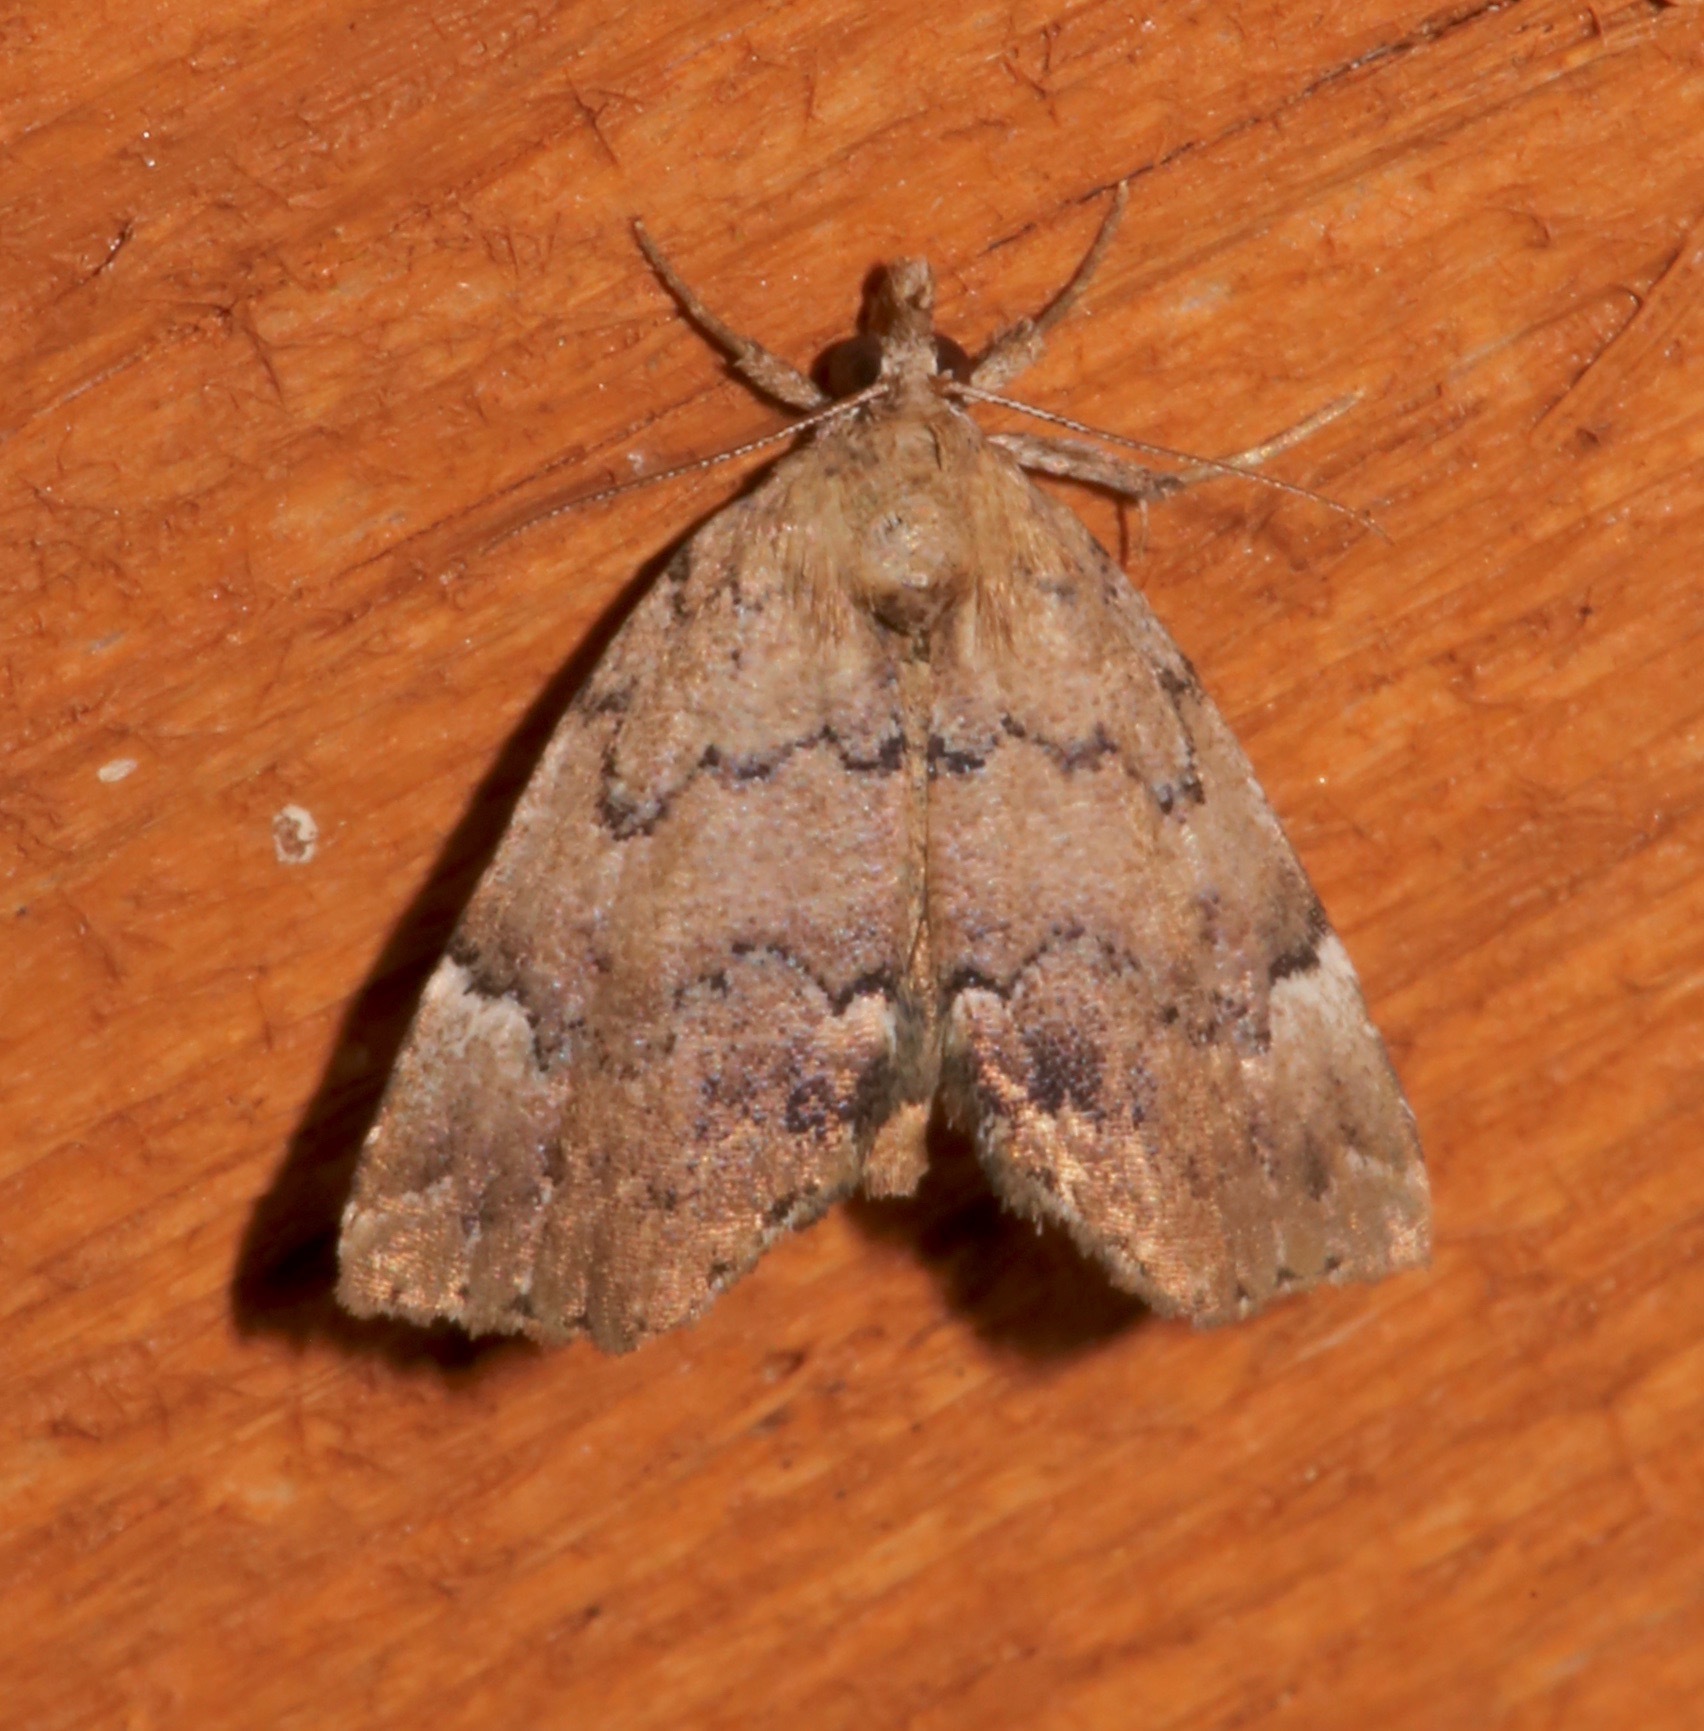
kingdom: Animalia
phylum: Arthropoda
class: Insecta
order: Lepidoptera
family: Erebidae
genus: Cutina
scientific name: Cutina aluticolor
